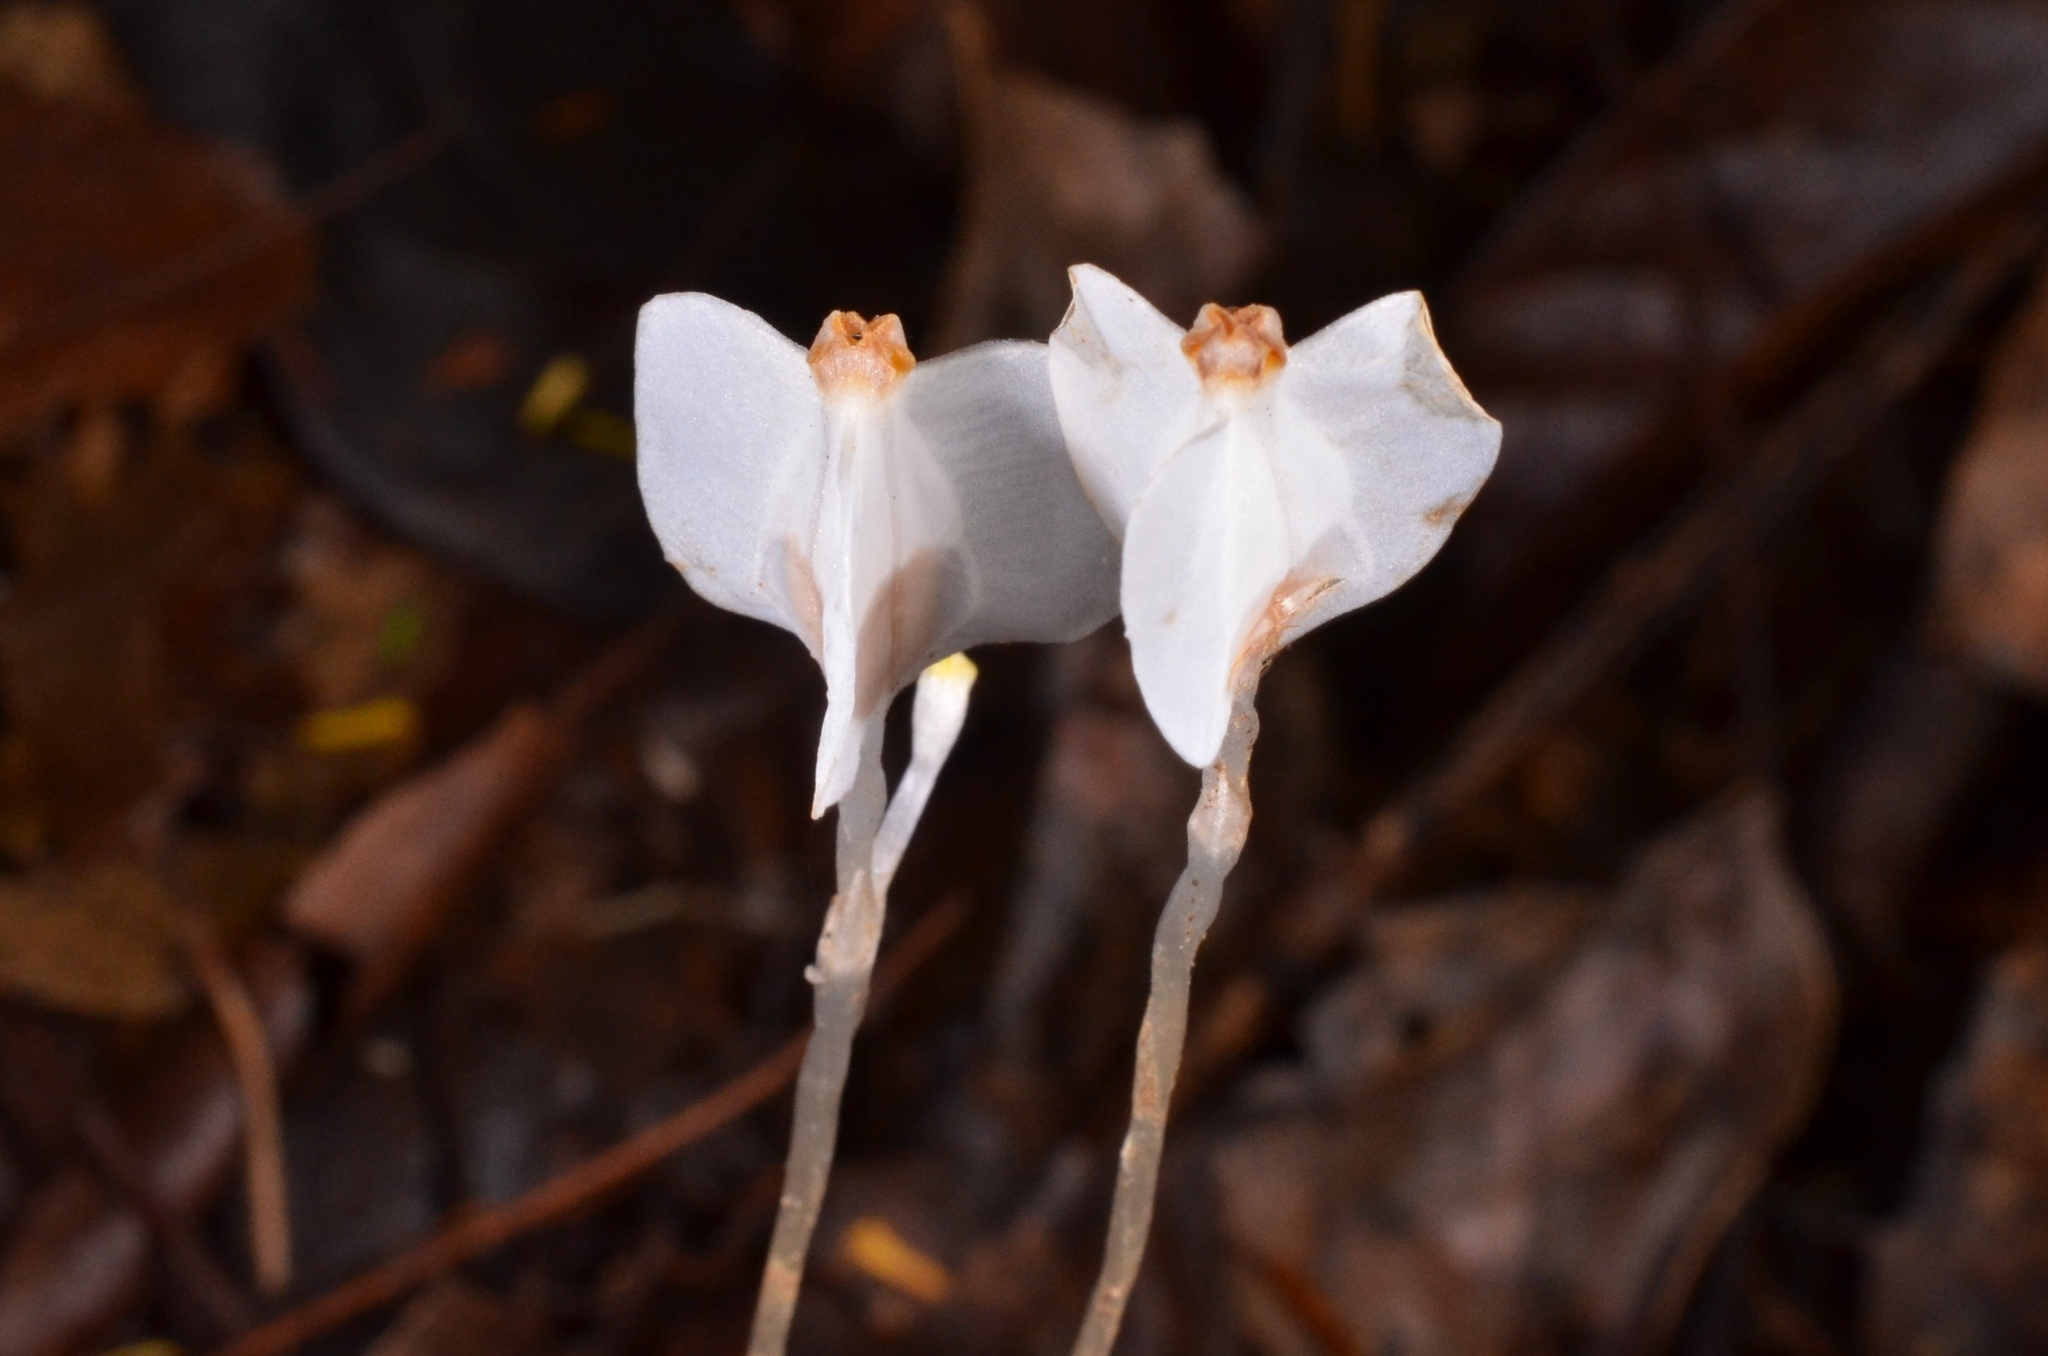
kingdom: Plantae
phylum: Tracheophyta
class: Liliopsida
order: Dioscoreales
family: Burmanniaceae
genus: Burmannia
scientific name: Burmannia oblonga
